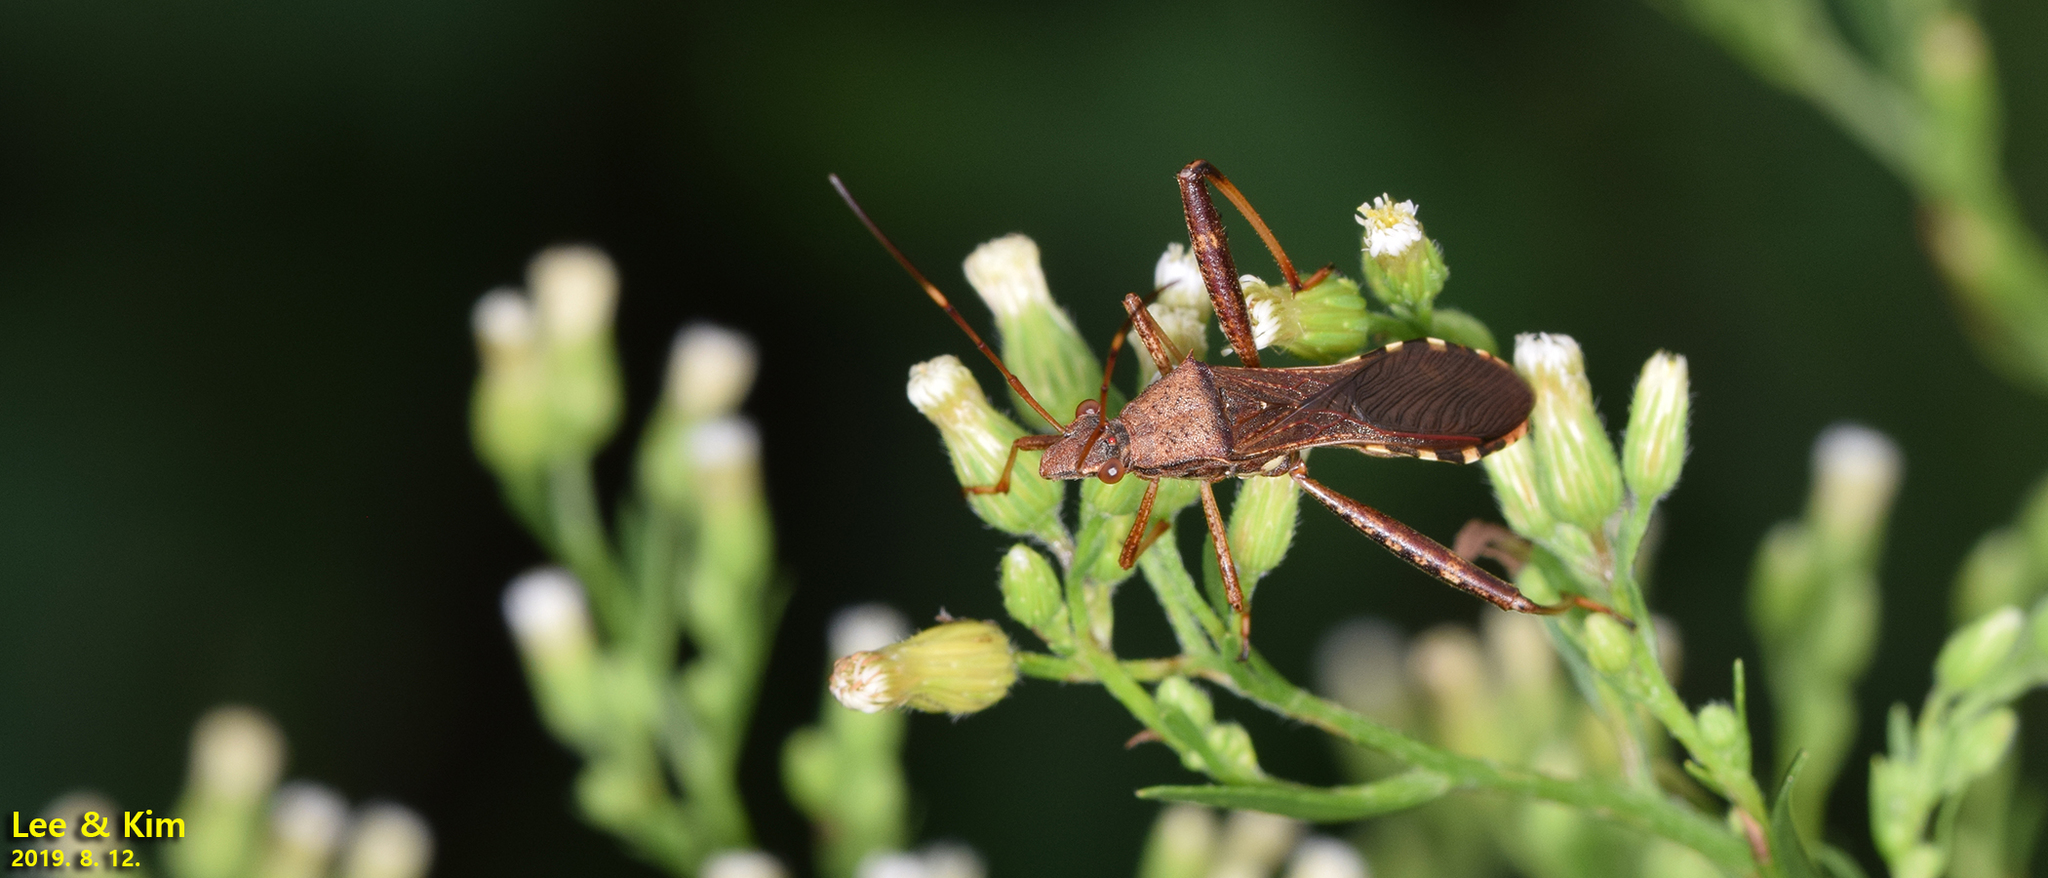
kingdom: Animalia
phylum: Arthropoda
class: Insecta
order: Hemiptera
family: Alydidae
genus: Riptortus
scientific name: Riptortus pedestris
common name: Bean bug
